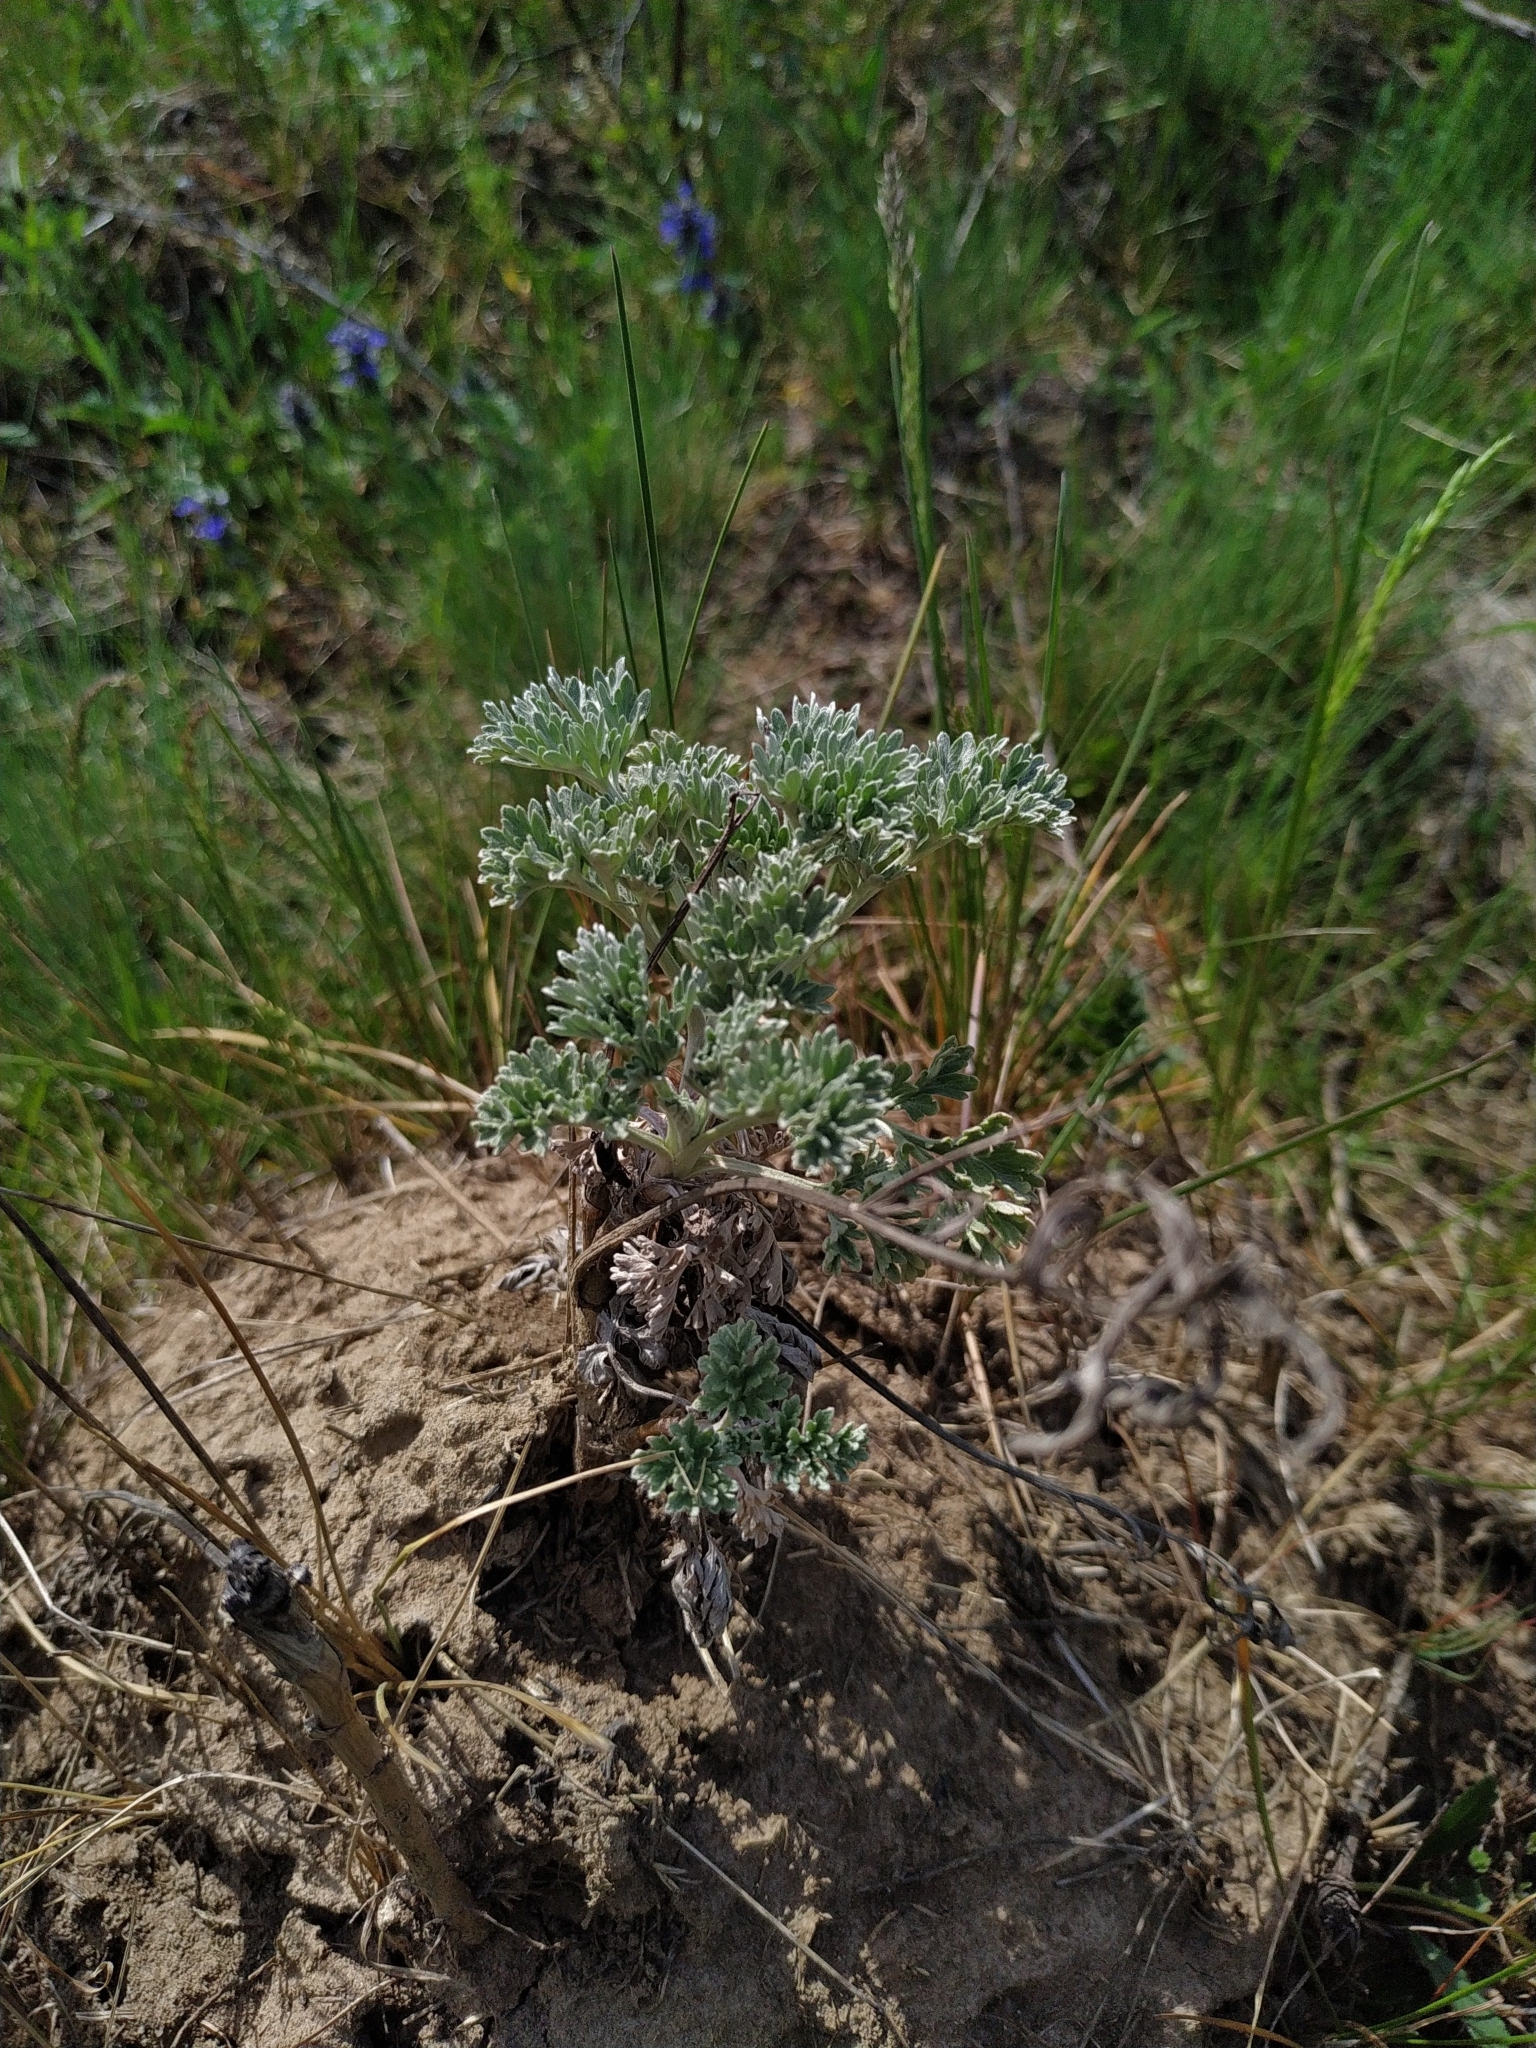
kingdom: Plantae
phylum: Tracheophyta
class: Magnoliopsida
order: Asterales
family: Asteraceae
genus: Artemisia
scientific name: Artemisia absinthium
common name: Wormwood
